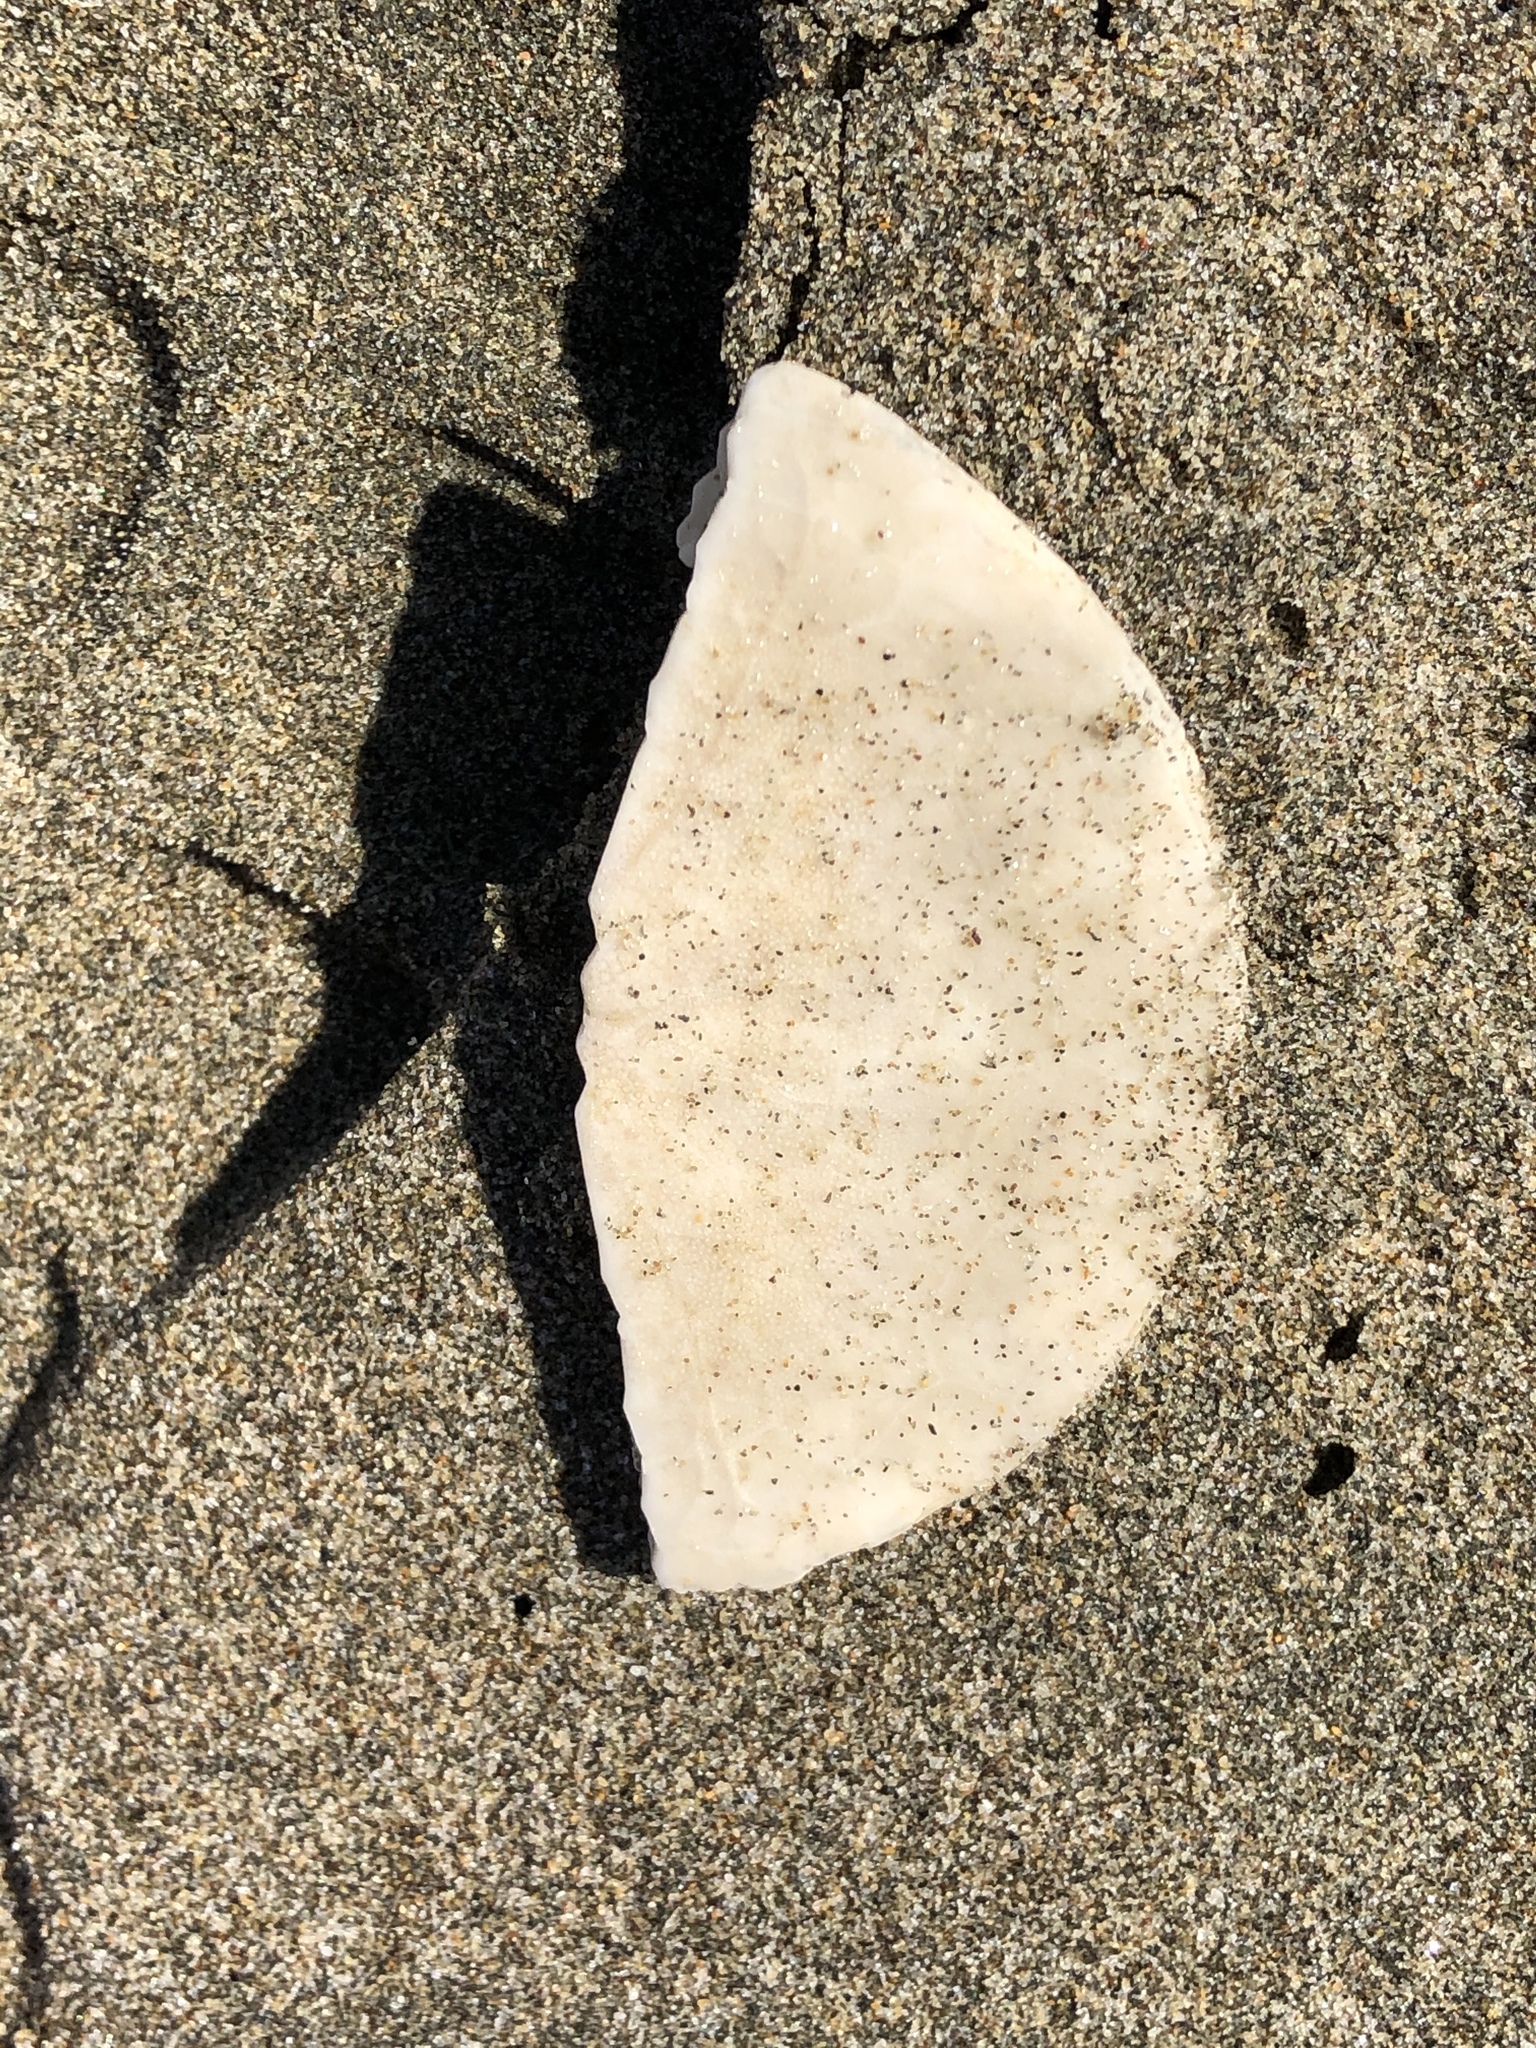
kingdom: Animalia
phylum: Echinodermata
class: Echinoidea
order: Echinolampadacea
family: Dendrasteridae
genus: Dendraster
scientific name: Dendraster excentricus
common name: Eccentric sand dollar sea urchin
